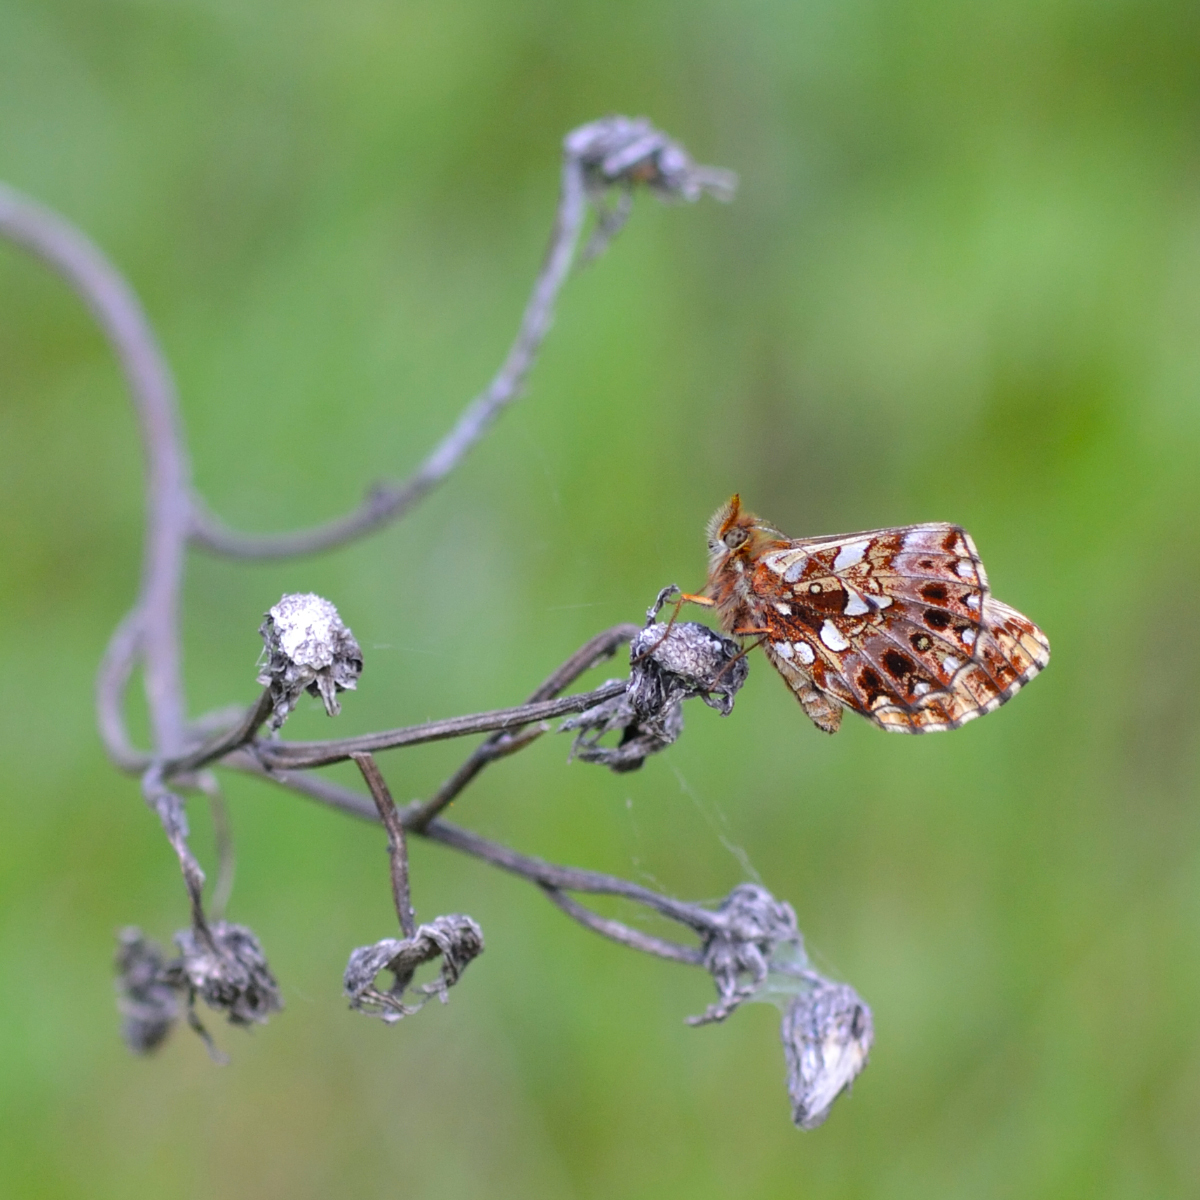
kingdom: Animalia
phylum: Arthropoda
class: Insecta
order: Lepidoptera
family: Nymphalidae
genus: Boloria
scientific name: Boloria dia
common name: Weaver's fritillary
